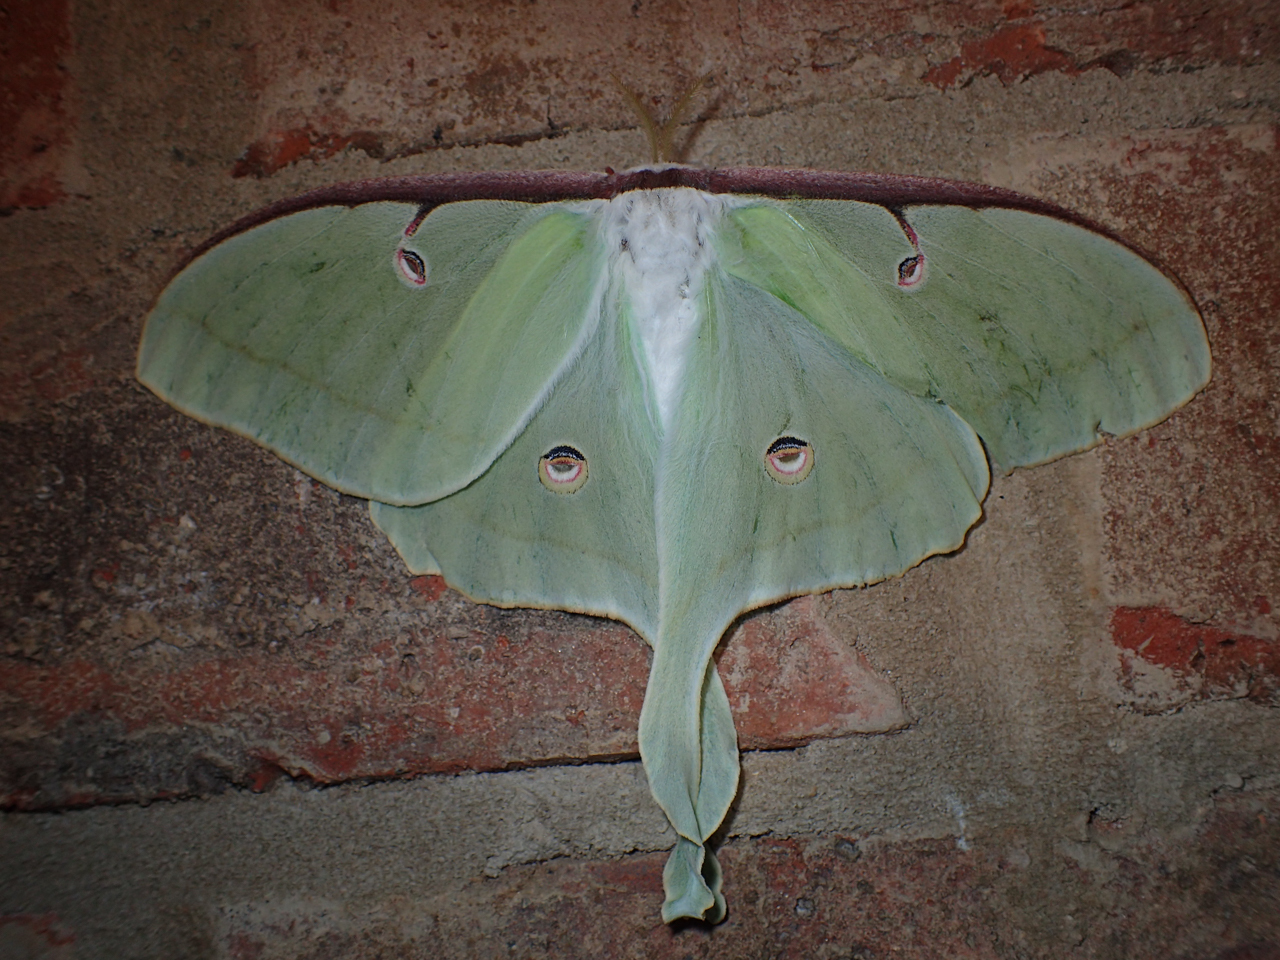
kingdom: Animalia
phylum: Arthropoda
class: Insecta
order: Lepidoptera
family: Saturniidae
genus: Actias
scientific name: Actias luna
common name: Luna moth
